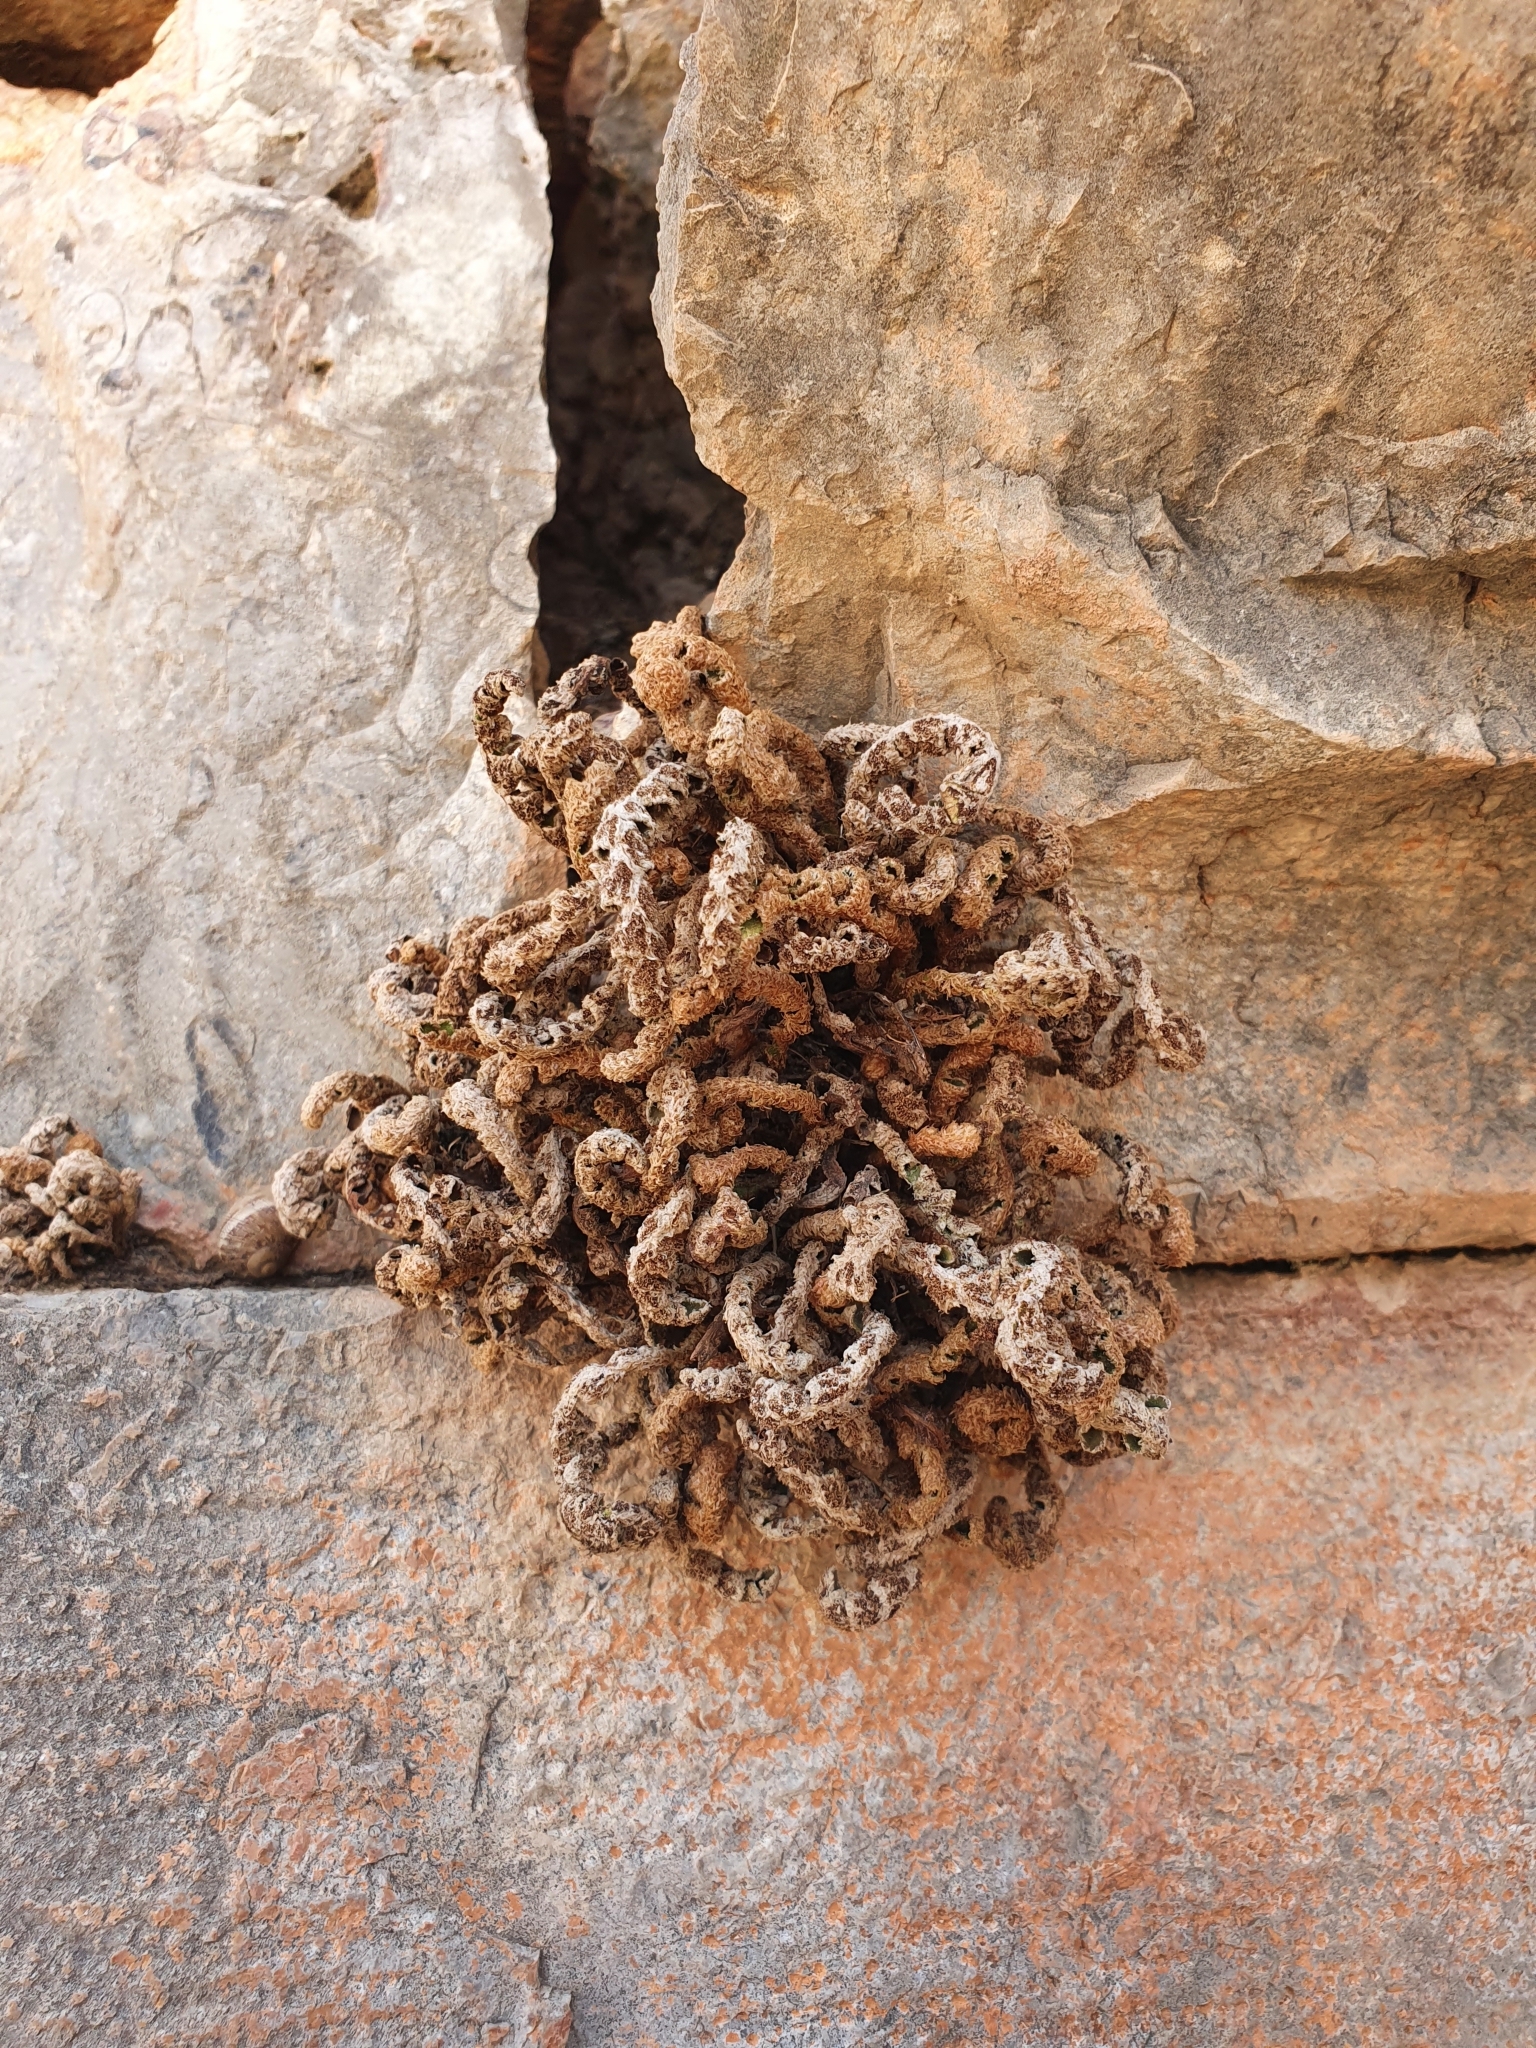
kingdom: Plantae
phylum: Tracheophyta
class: Polypodiopsida
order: Polypodiales
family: Aspleniaceae
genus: Asplenium
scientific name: Asplenium ceterach
